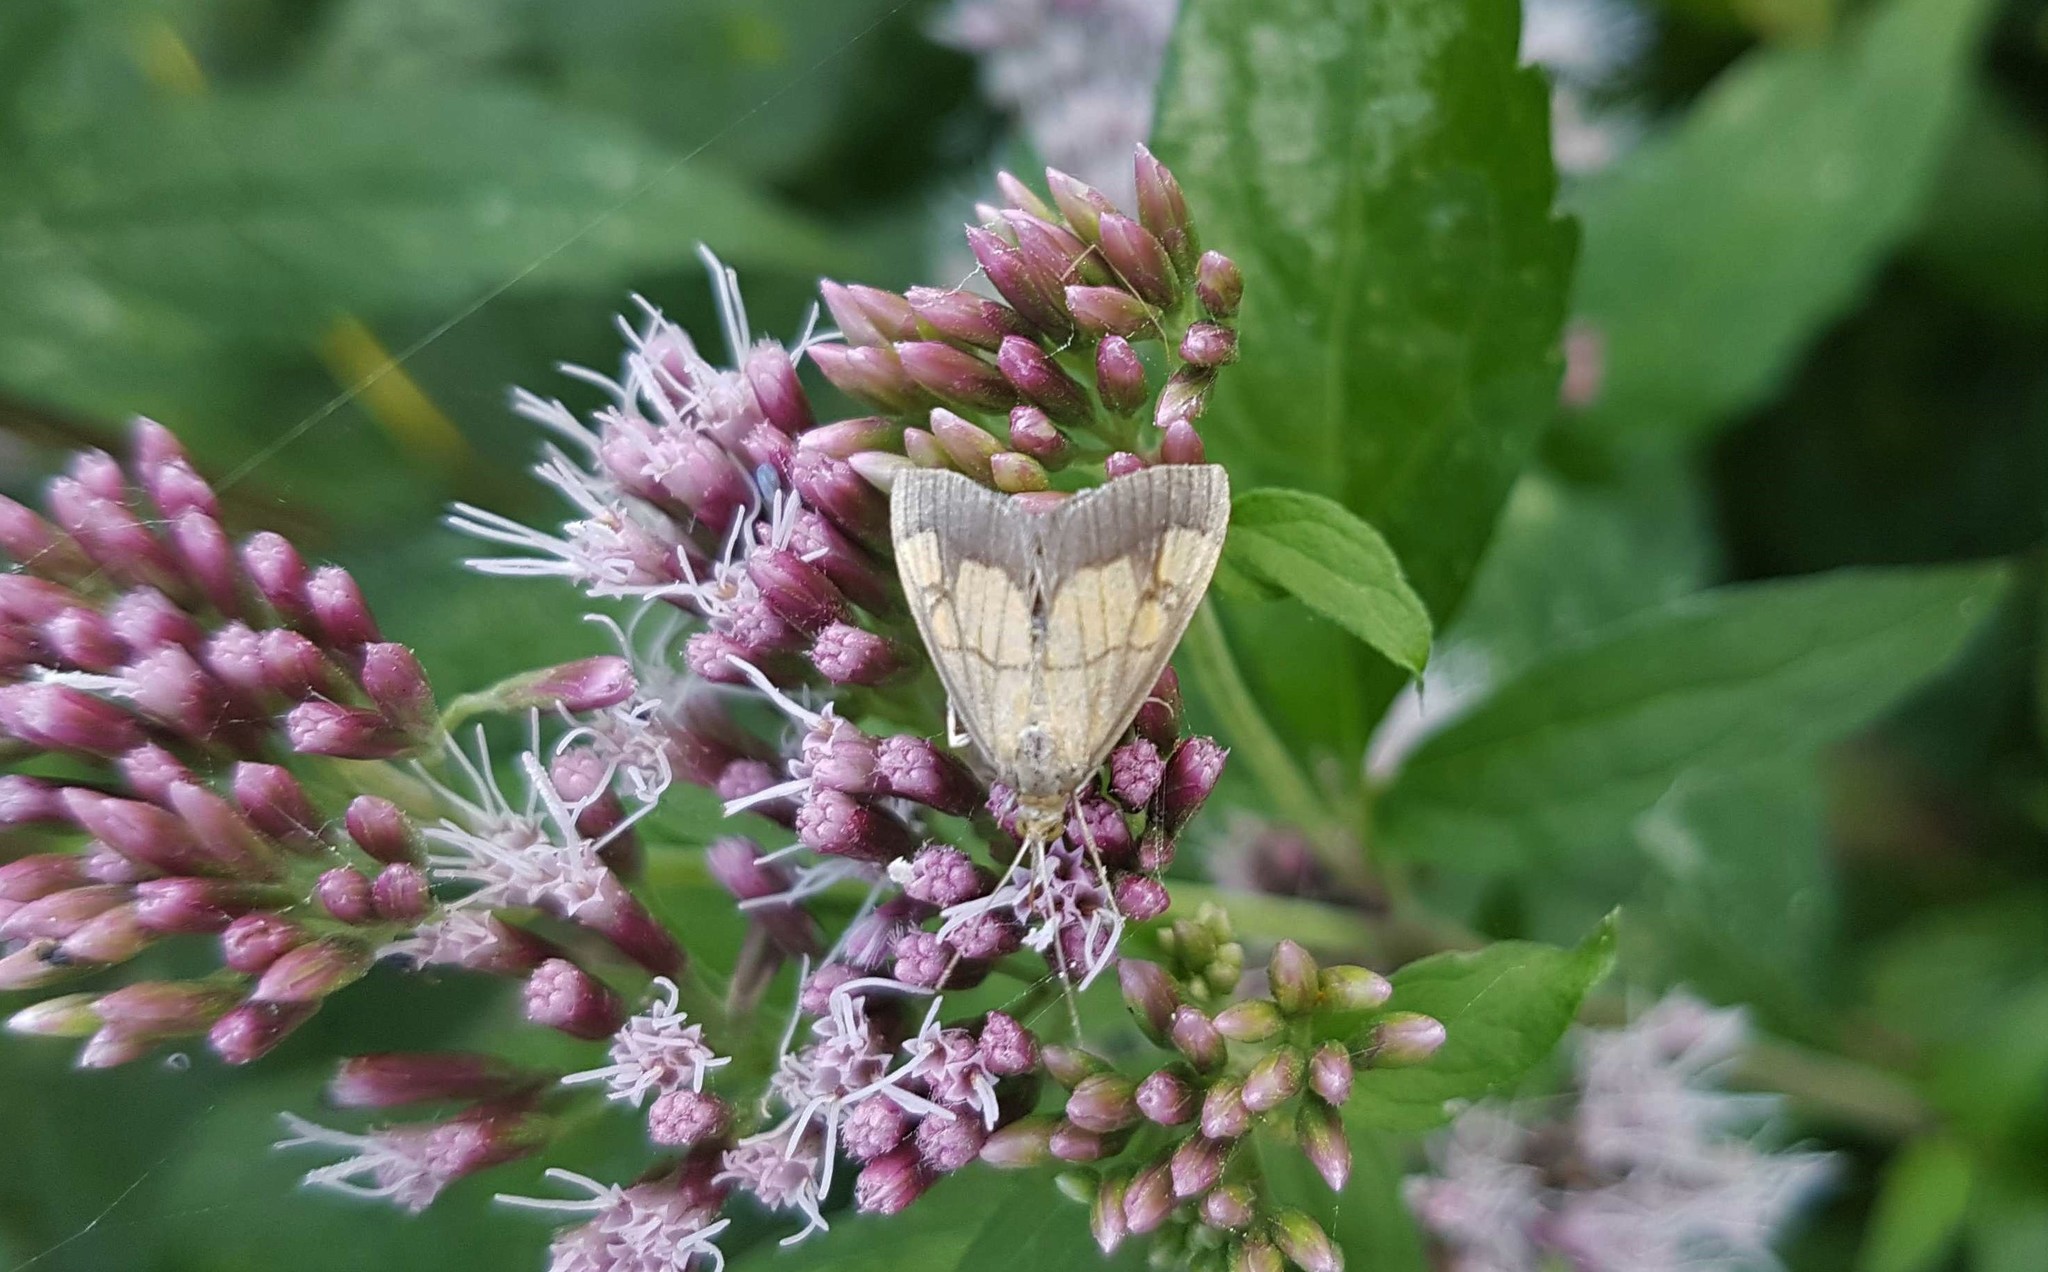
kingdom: Animalia
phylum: Arthropoda
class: Insecta
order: Lepidoptera
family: Crambidae
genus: Evergestis
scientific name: Evergestis limbata
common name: Dark bordered pearl
